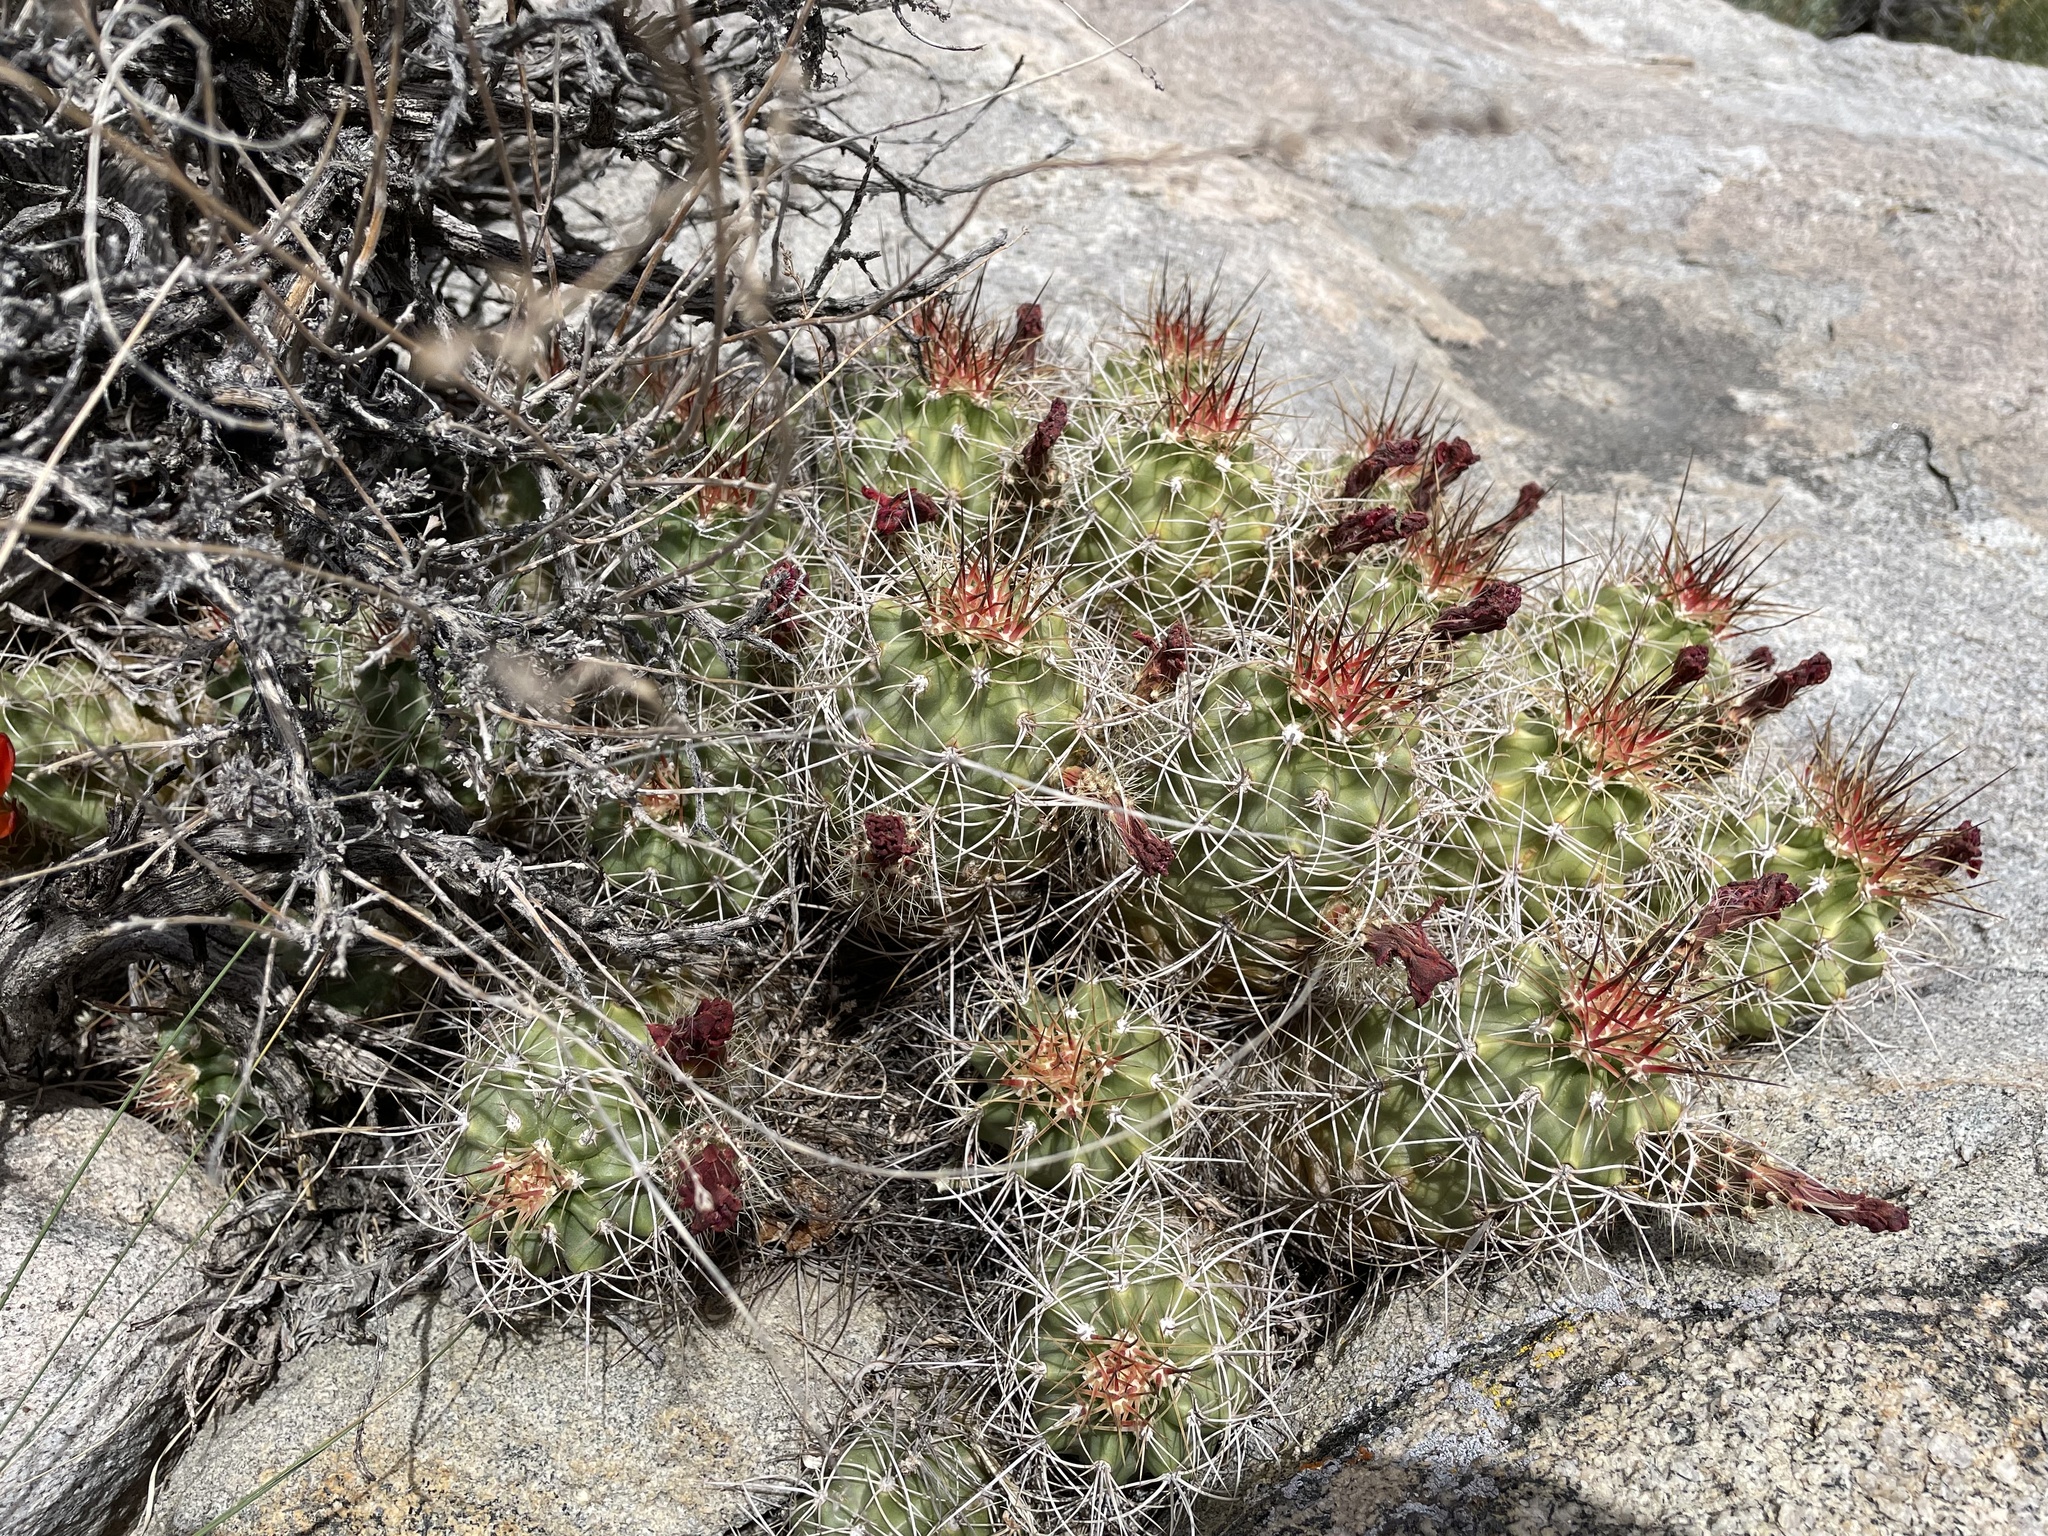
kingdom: Plantae
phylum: Tracheophyta
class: Magnoliopsida
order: Caryophyllales
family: Cactaceae
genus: Echinocereus
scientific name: Echinocereus triglochidiatus
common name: Claretcup hedgehog
